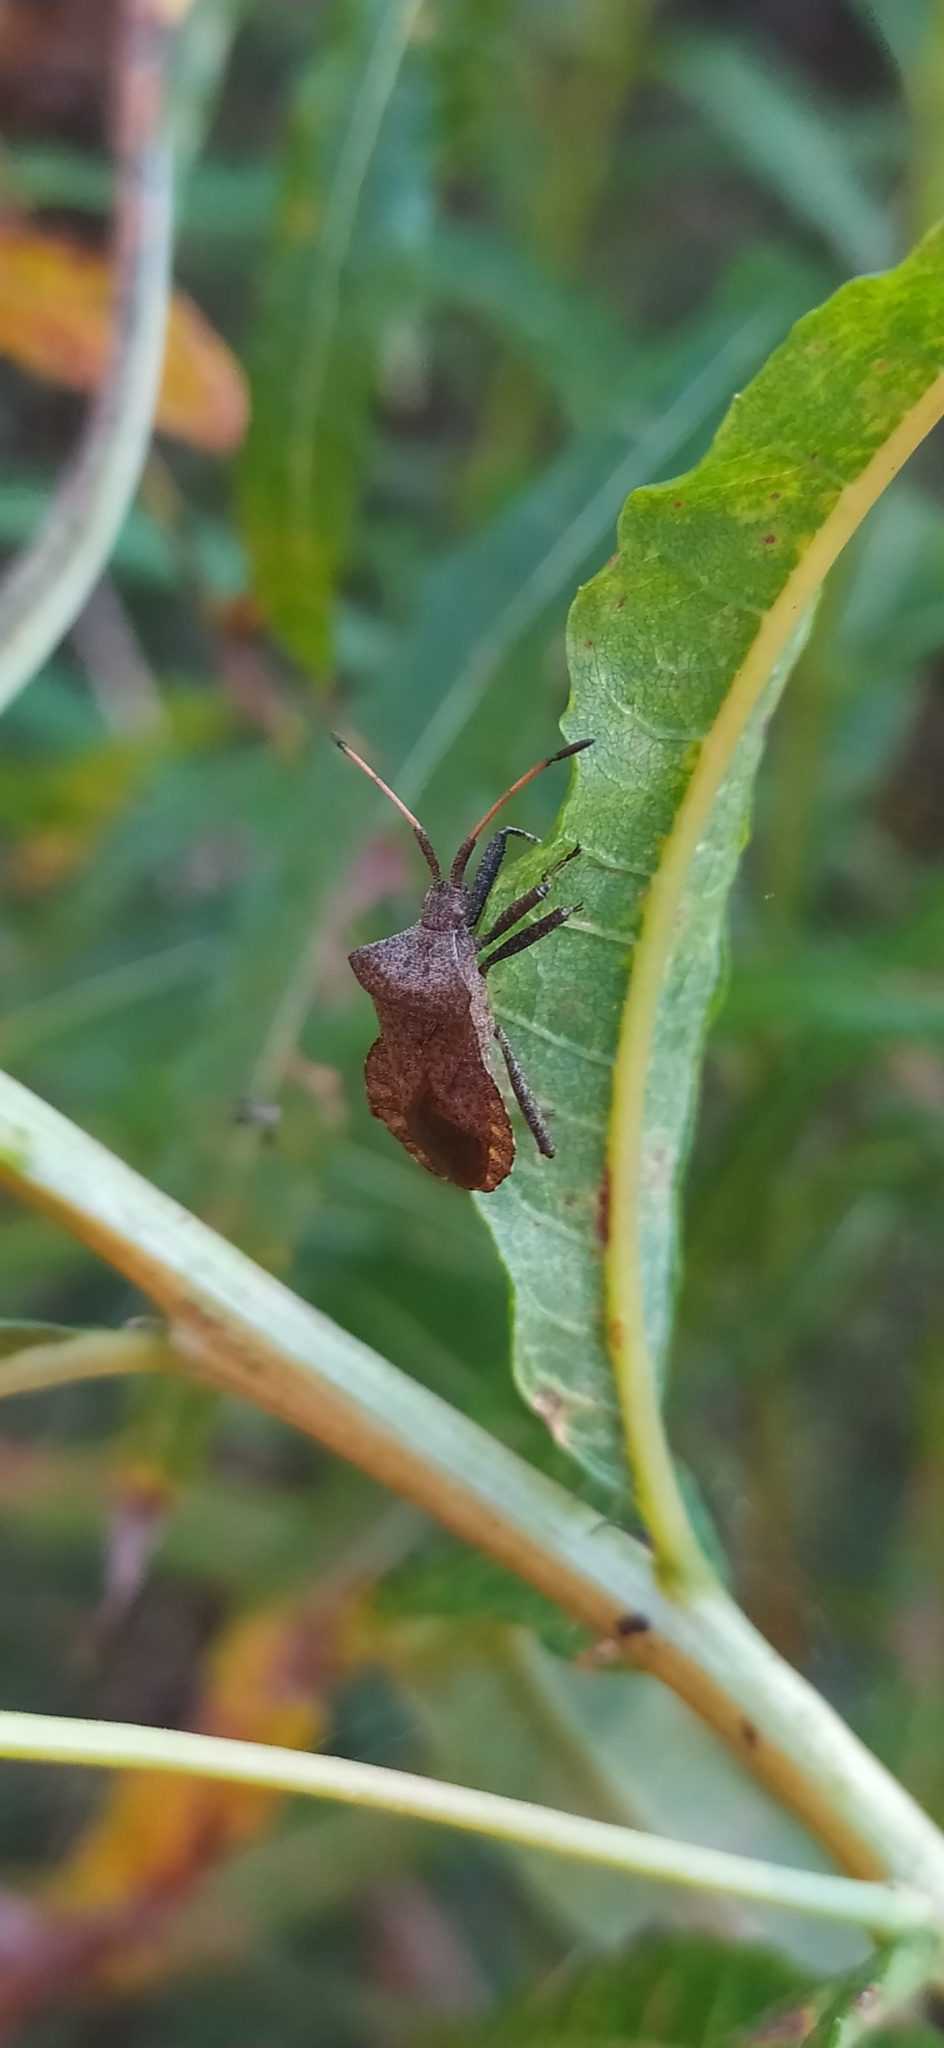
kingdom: Animalia
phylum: Arthropoda
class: Insecta
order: Hemiptera
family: Coreidae
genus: Coreus
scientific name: Coreus marginatus
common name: Dock bug
